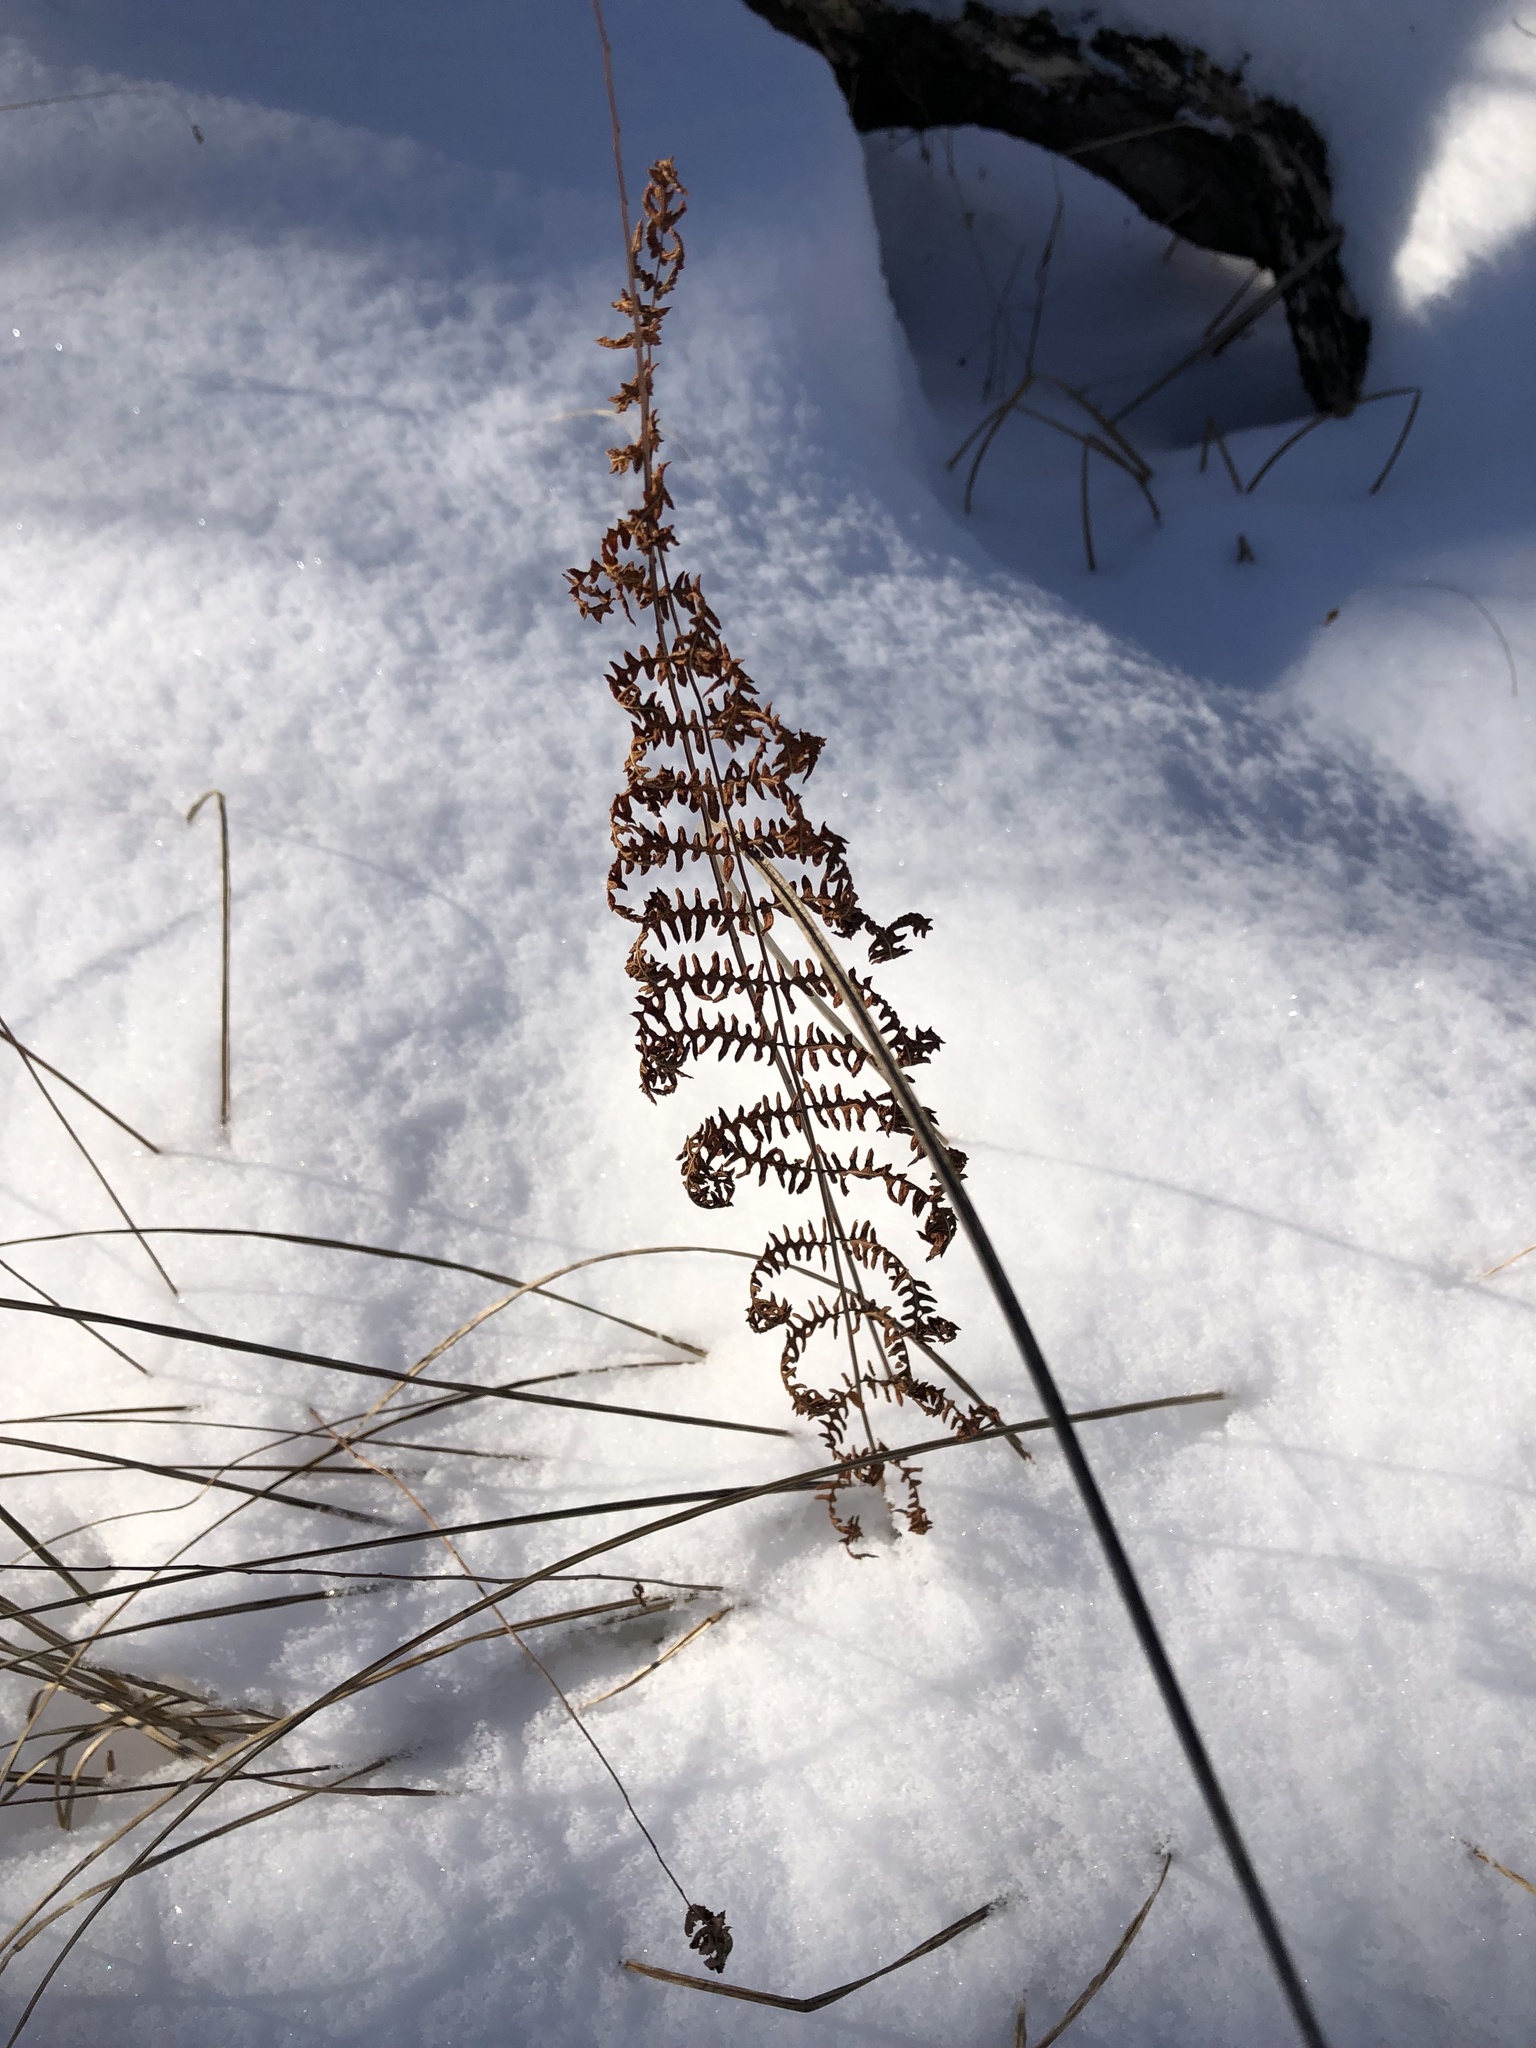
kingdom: Plantae
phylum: Tracheophyta
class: Polypodiopsida
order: Polypodiales
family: Thelypteridaceae
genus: Thelypteris
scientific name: Thelypteris palustris
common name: Marsh fern
